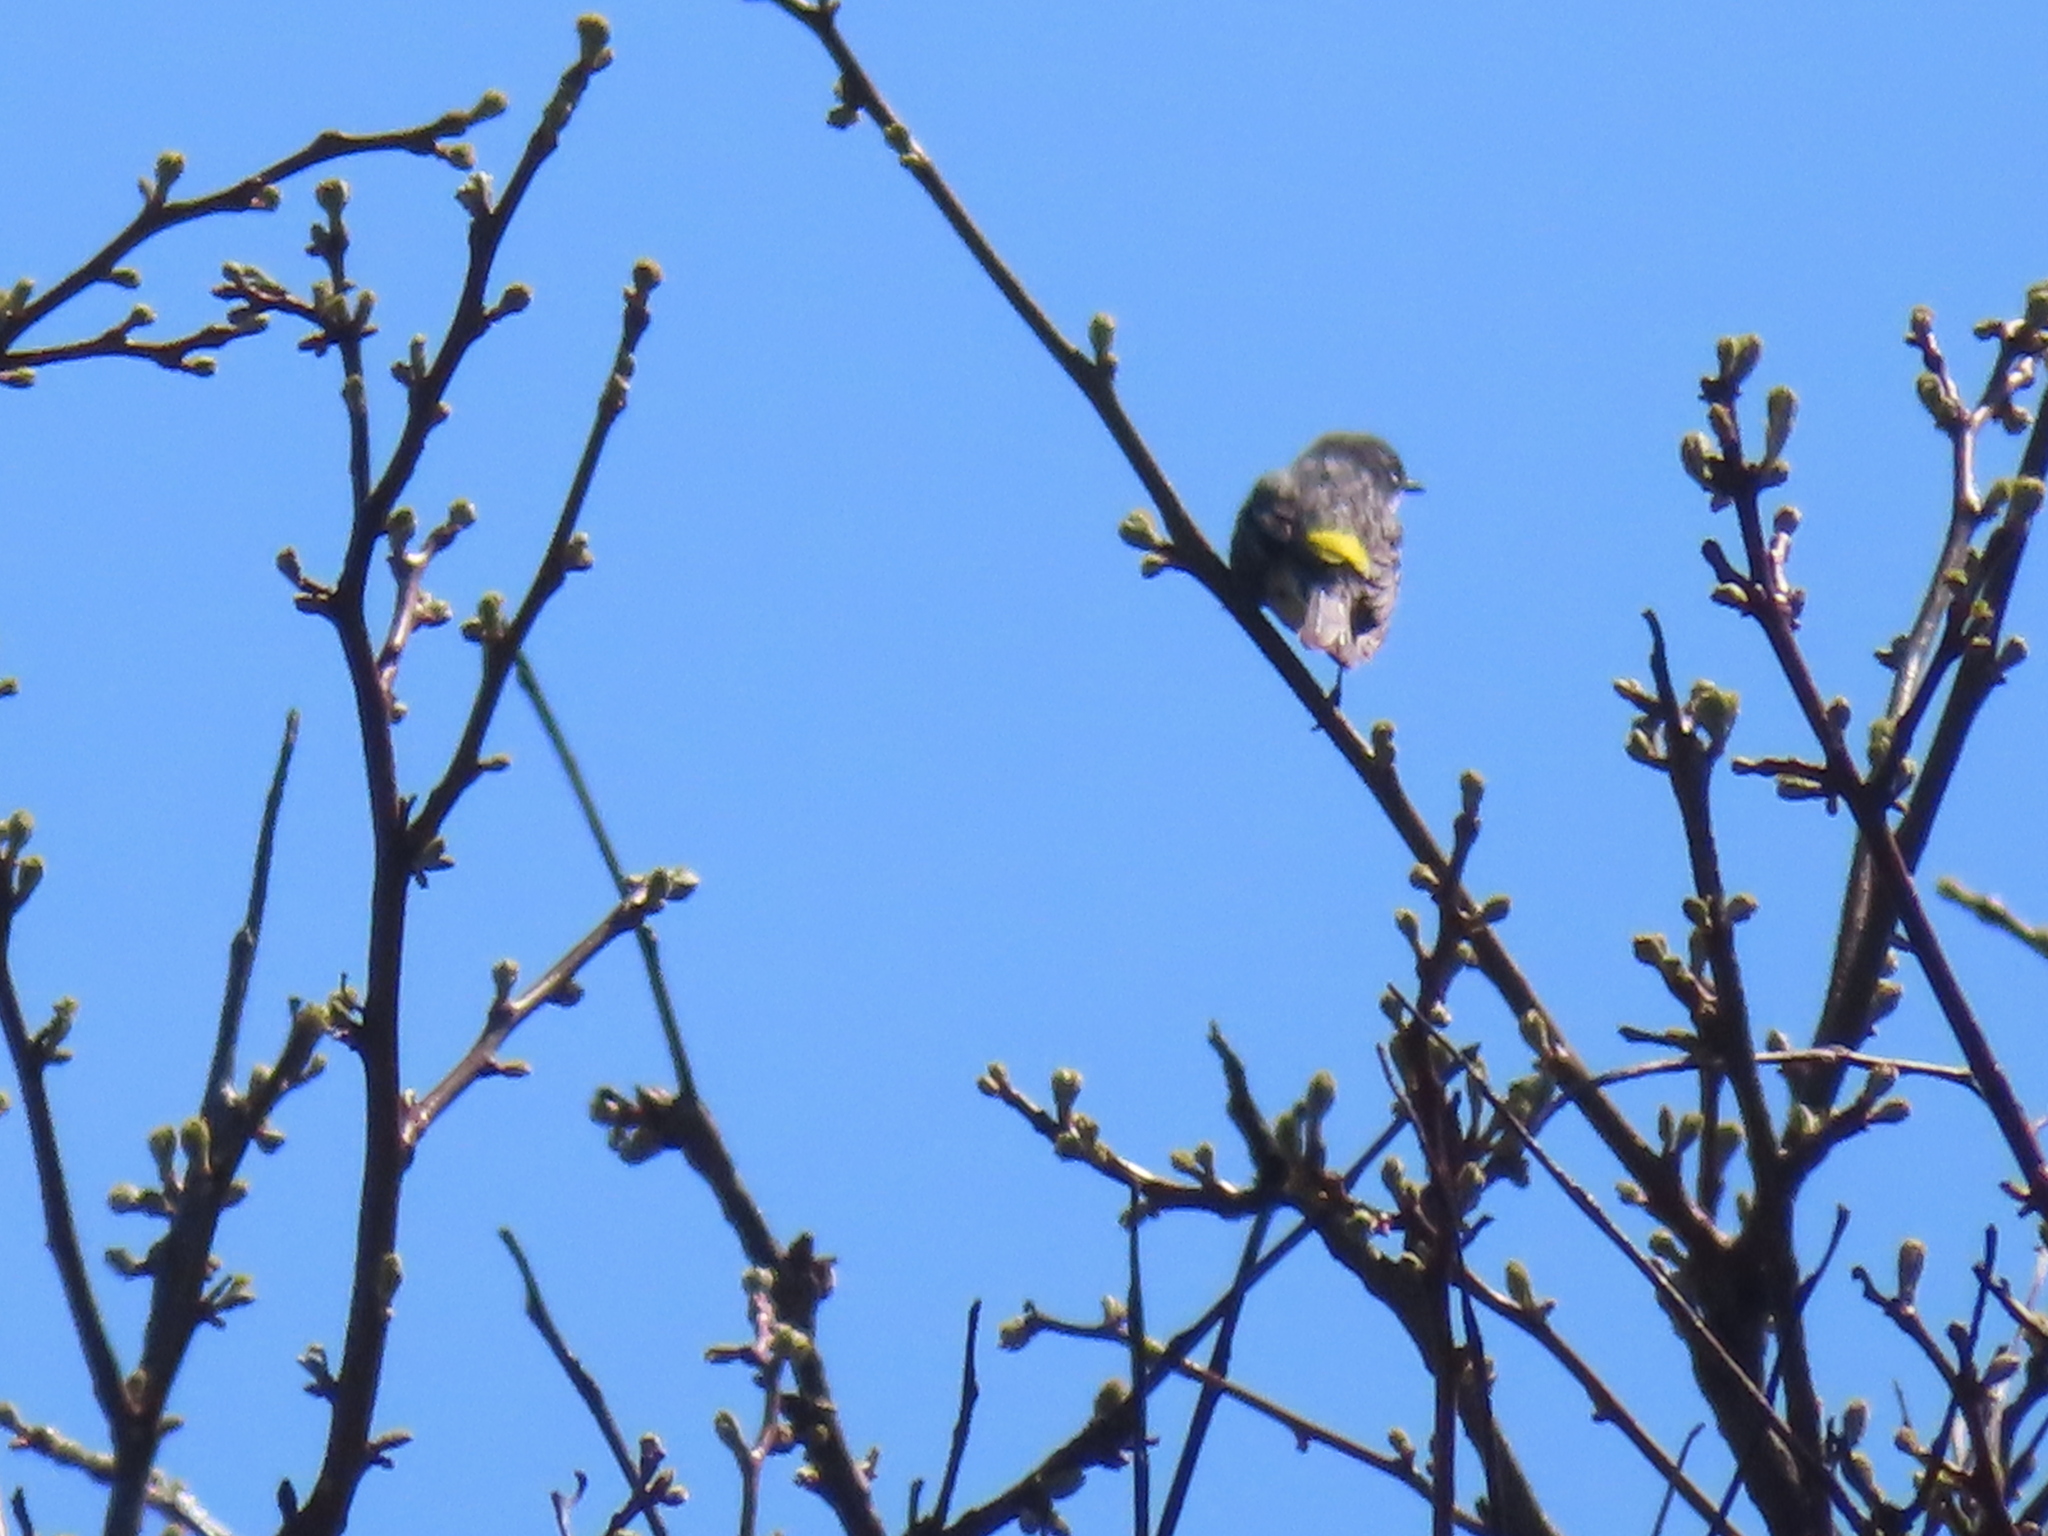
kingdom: Animalia
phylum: Chordata
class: Aves
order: Passeriformes
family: Parulidae
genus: Setophaga
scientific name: Setophaga coronata
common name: Myrtle warbler
